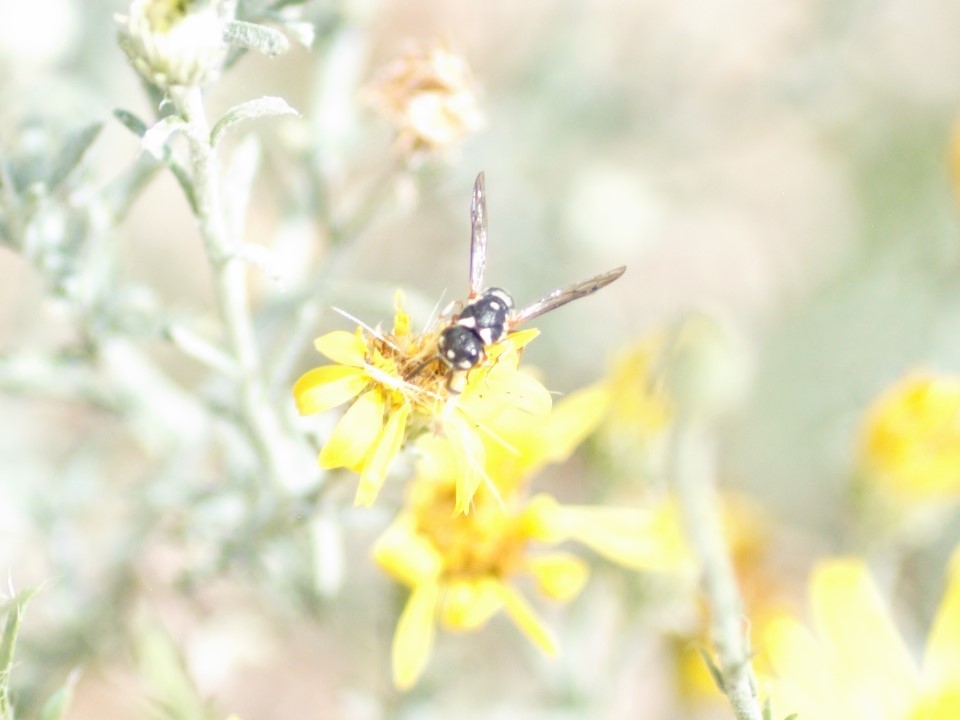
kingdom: Animalia
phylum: Arthropoda
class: Insecta
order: Hymenoptera
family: Eumenidae
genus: Stenodynerus
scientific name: Stenodynerus
